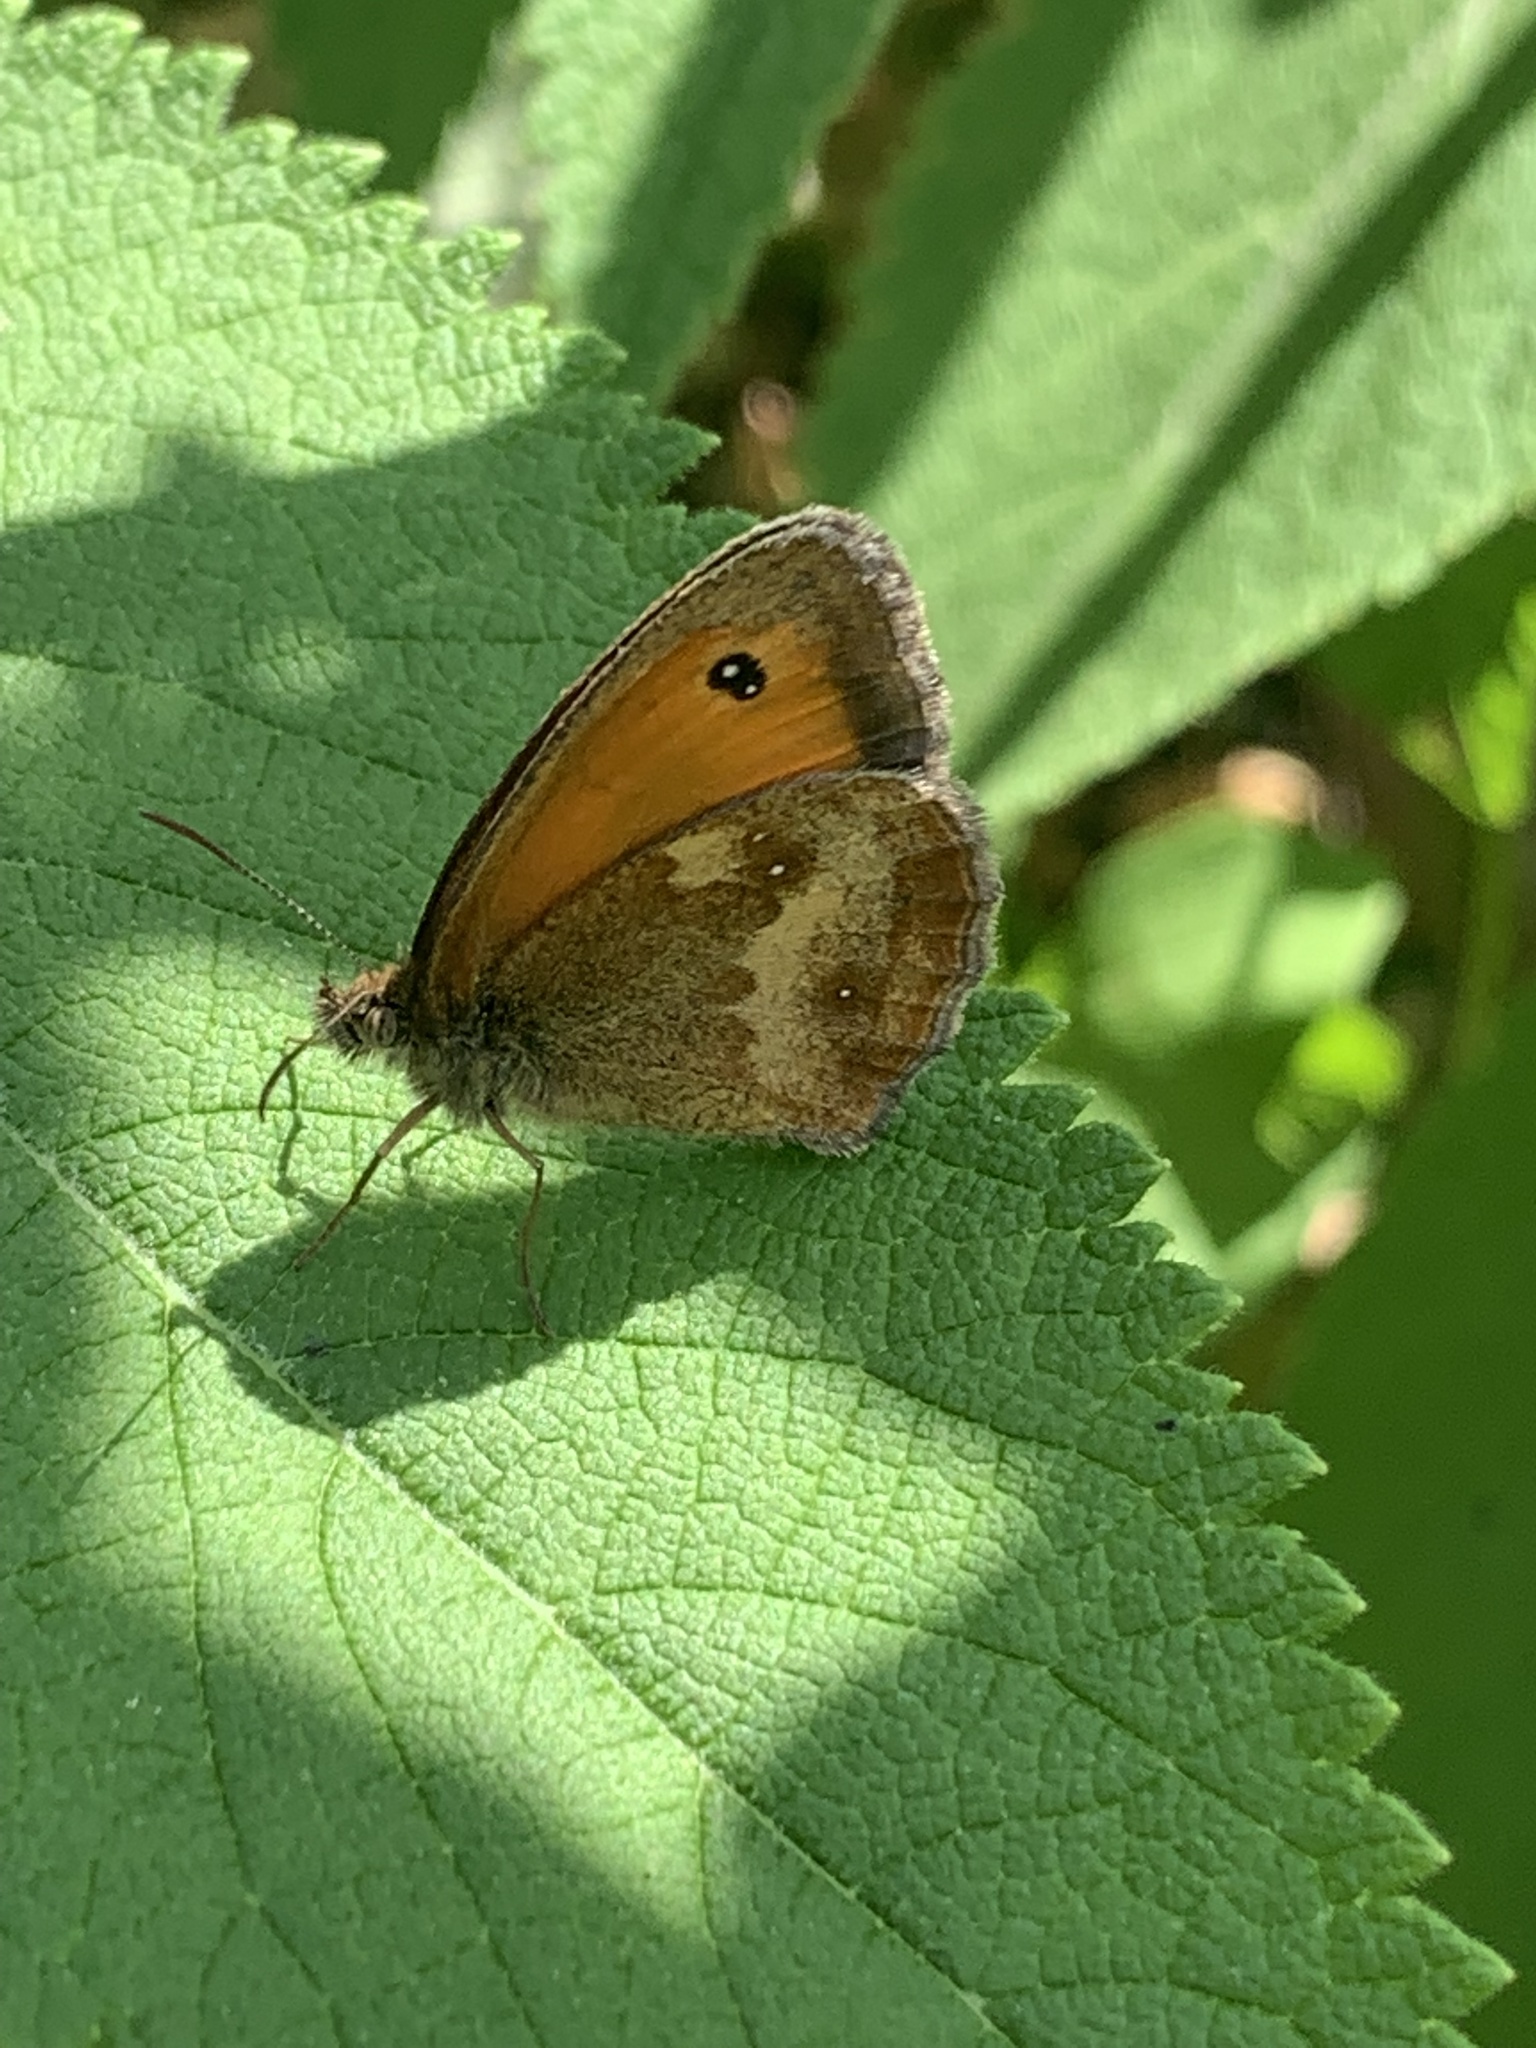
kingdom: Animalia
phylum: Arthropoda
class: Insecta
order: Lepidoptera
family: Nymphalidae
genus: Pyronia
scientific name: Pyronia tithonus
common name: Gatekeeper
